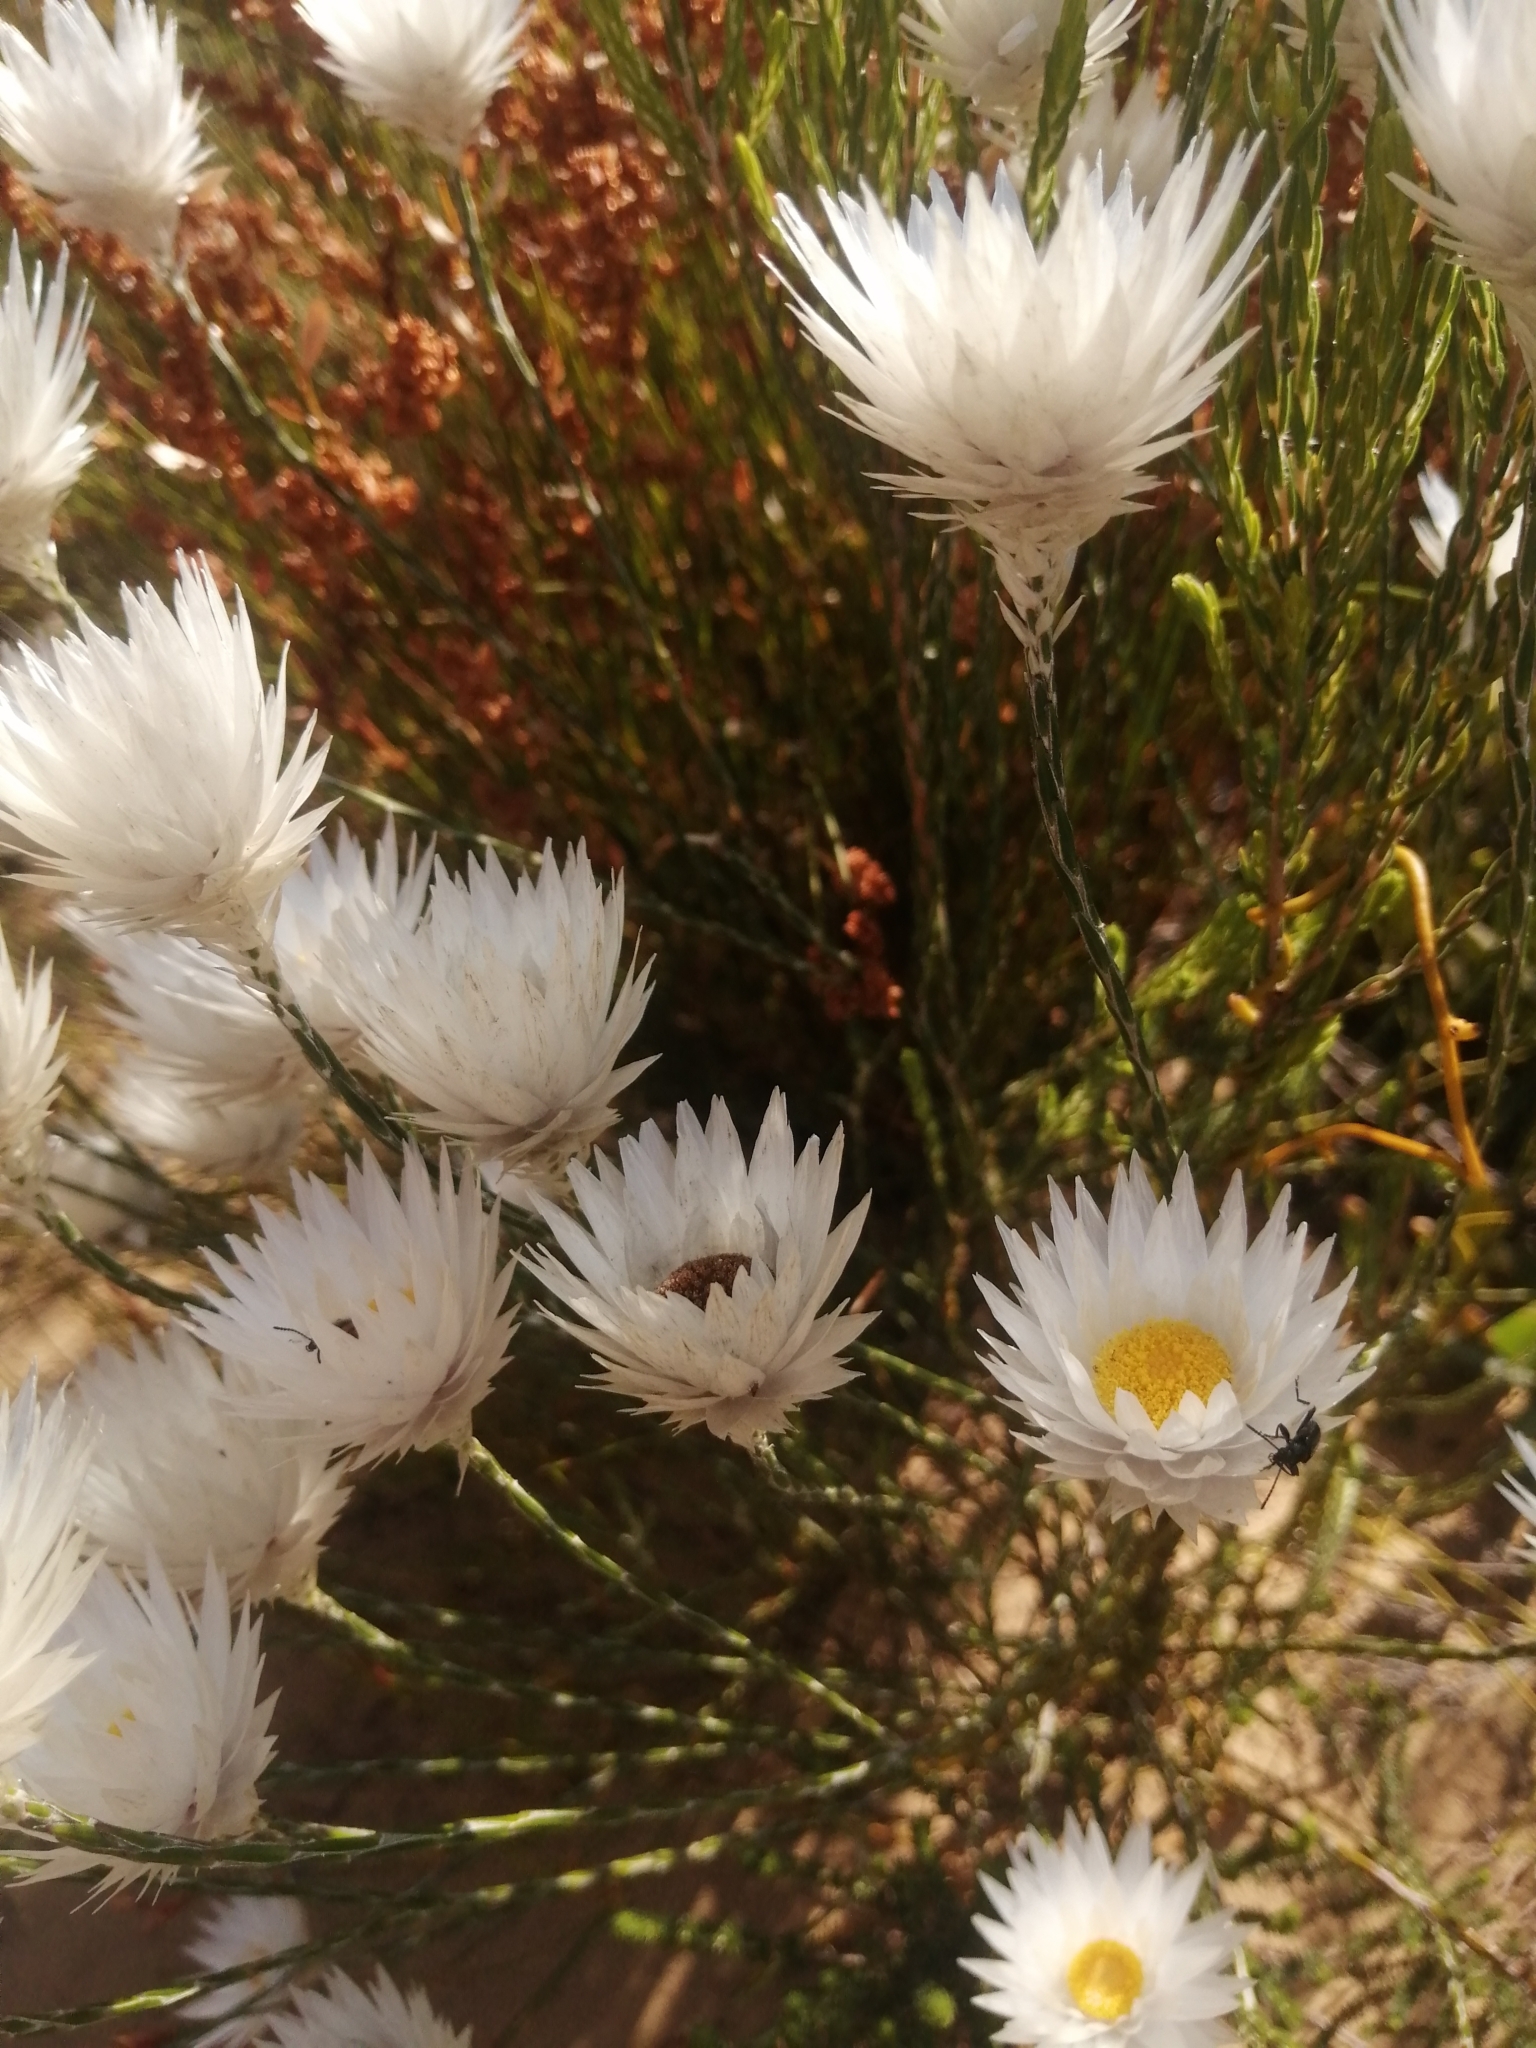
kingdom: Plantae
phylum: Tracheophyta
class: Magnoliopsida
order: Asterales
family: Asteraceae
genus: Edmondia
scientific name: Edmondia sesamoides
